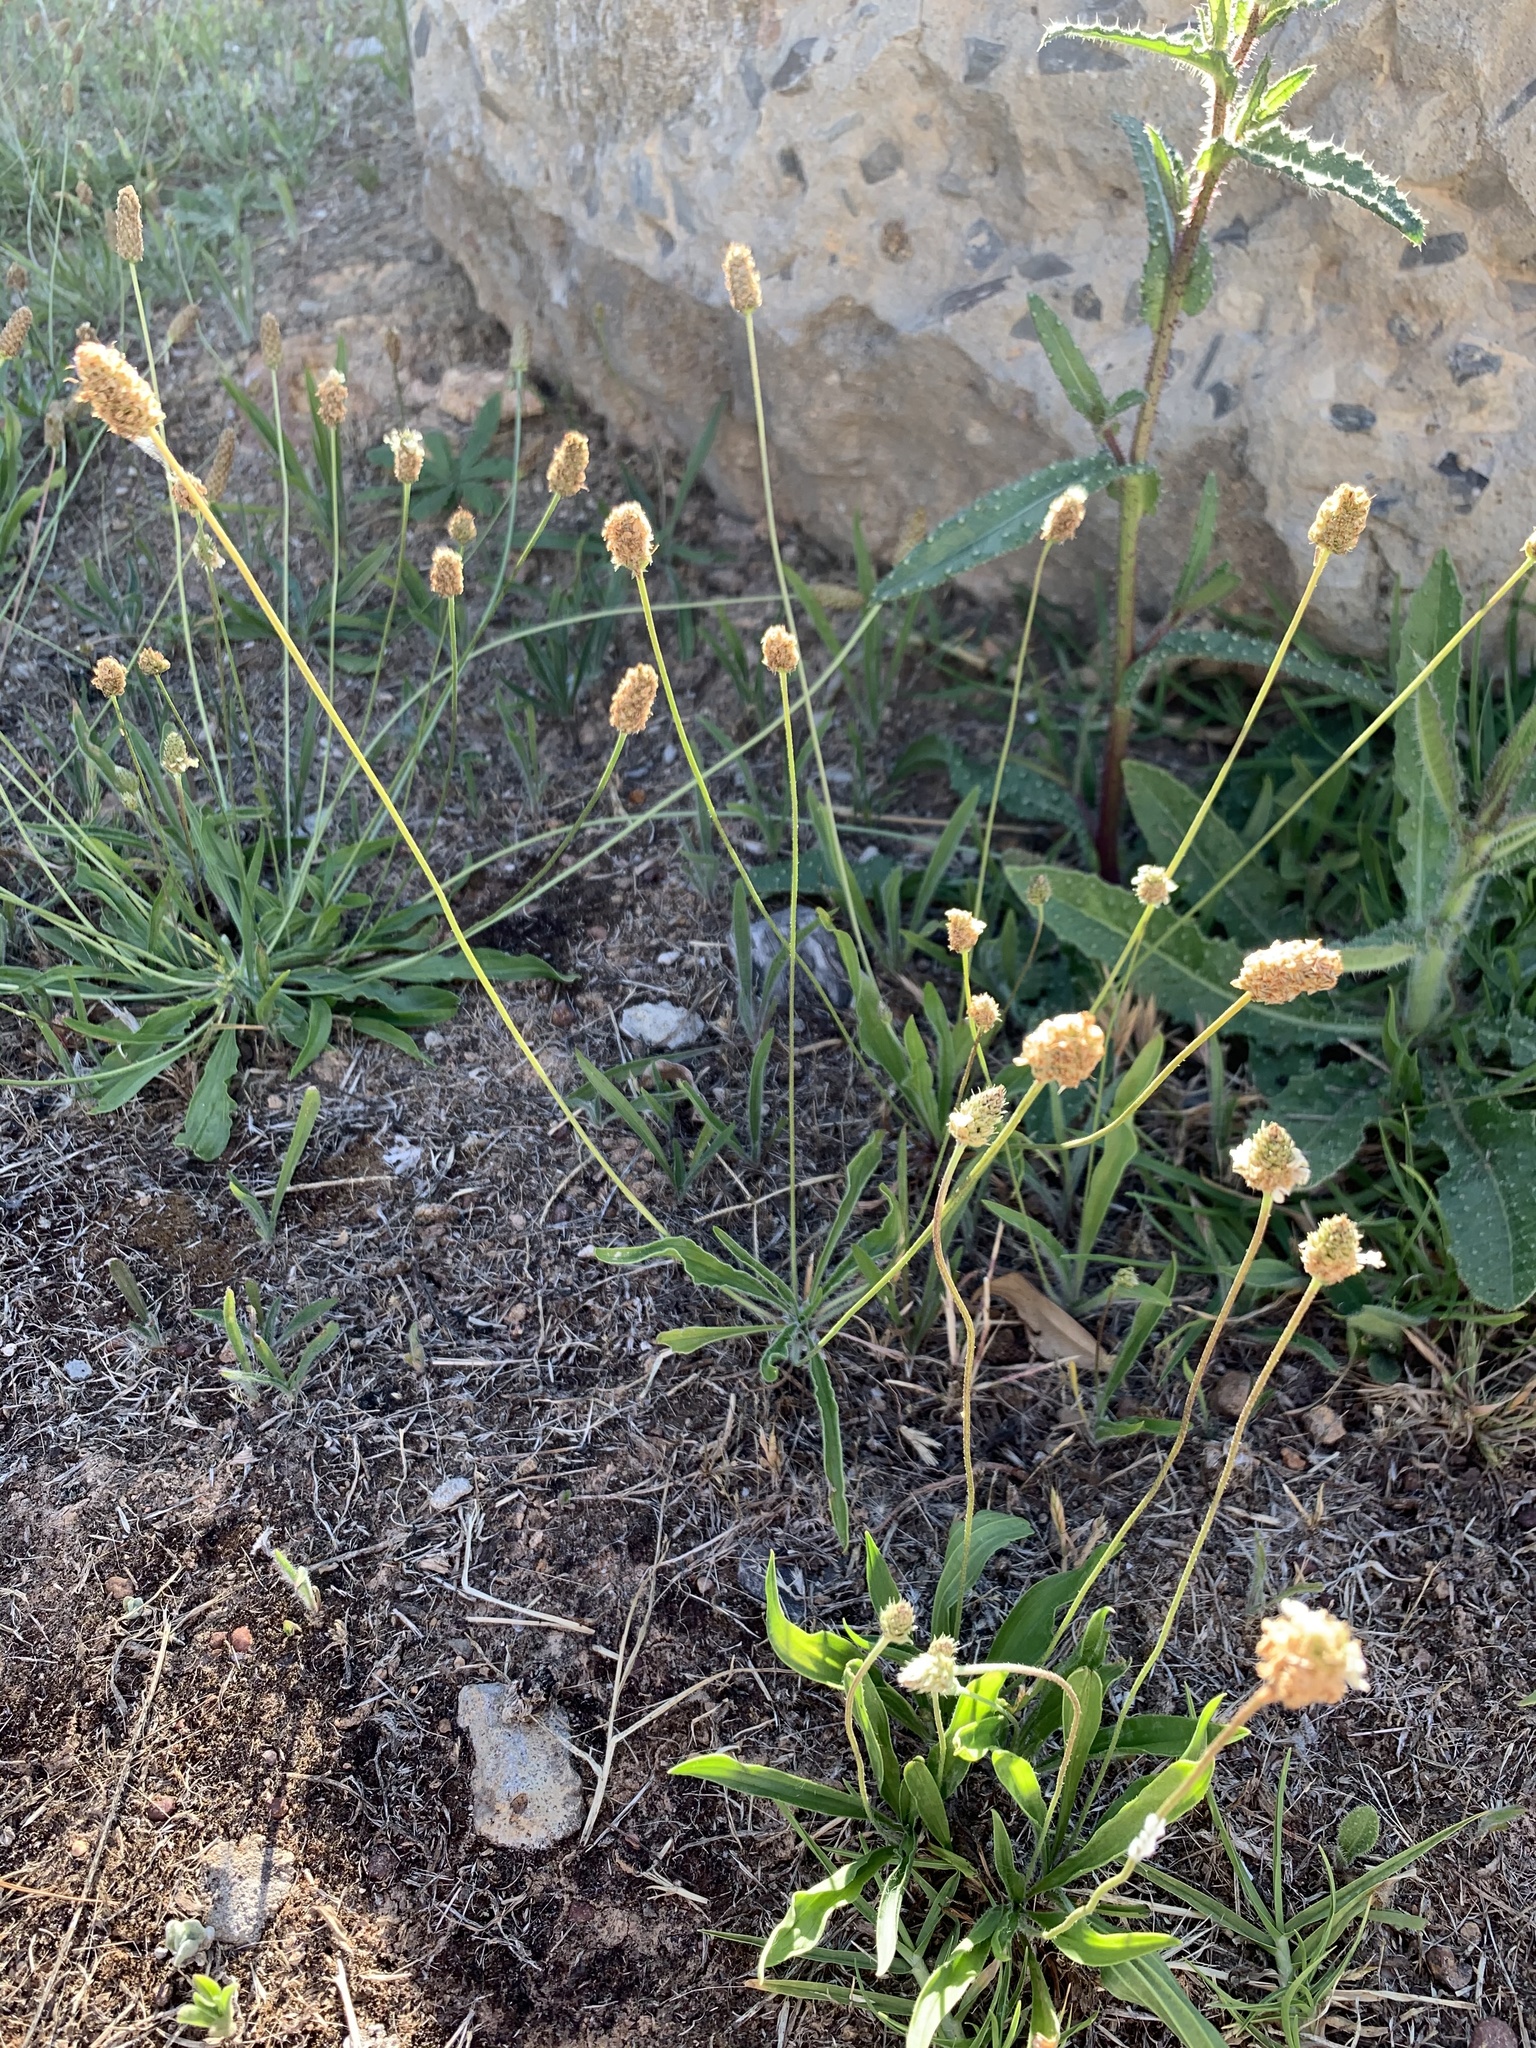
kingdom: Plantae
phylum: Tracheophyta
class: Magnoliopsida
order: Lamiales
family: Plantaginaceae
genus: Plantago
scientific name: Plantago lanceolata
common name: Ribwort plantain
